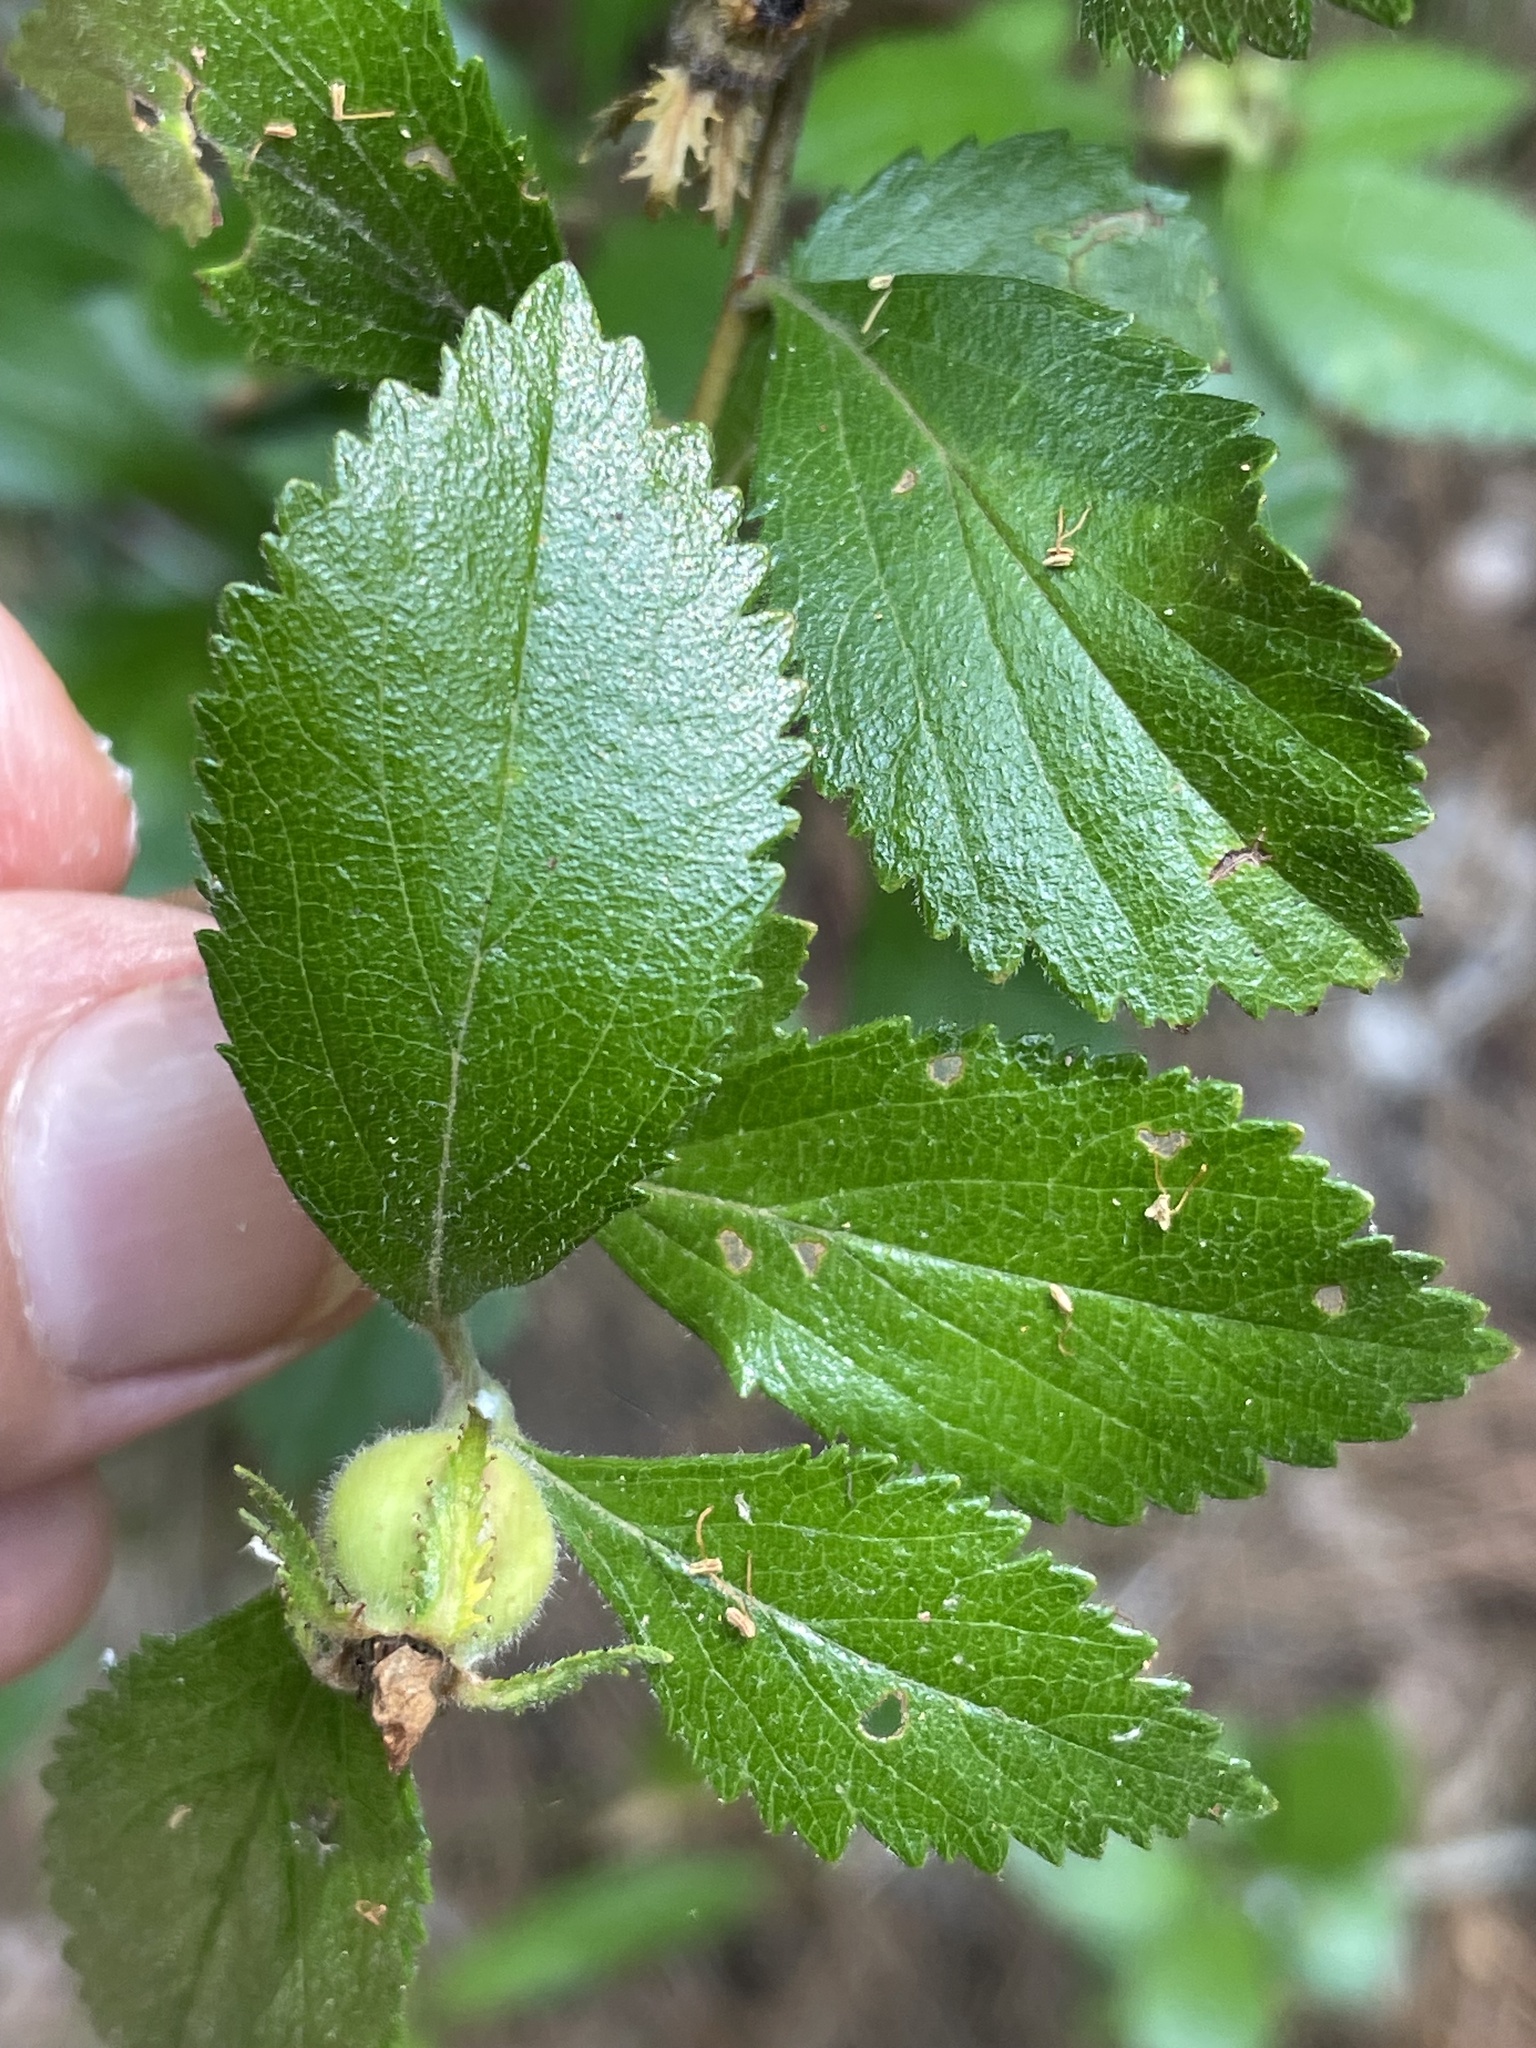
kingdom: Plantae
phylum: Tracheophyta
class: Magnoliopsida
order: Rosales
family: Rosaceae
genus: Crataegus
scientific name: Crataegus uniflora
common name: One-flower hawthorn
